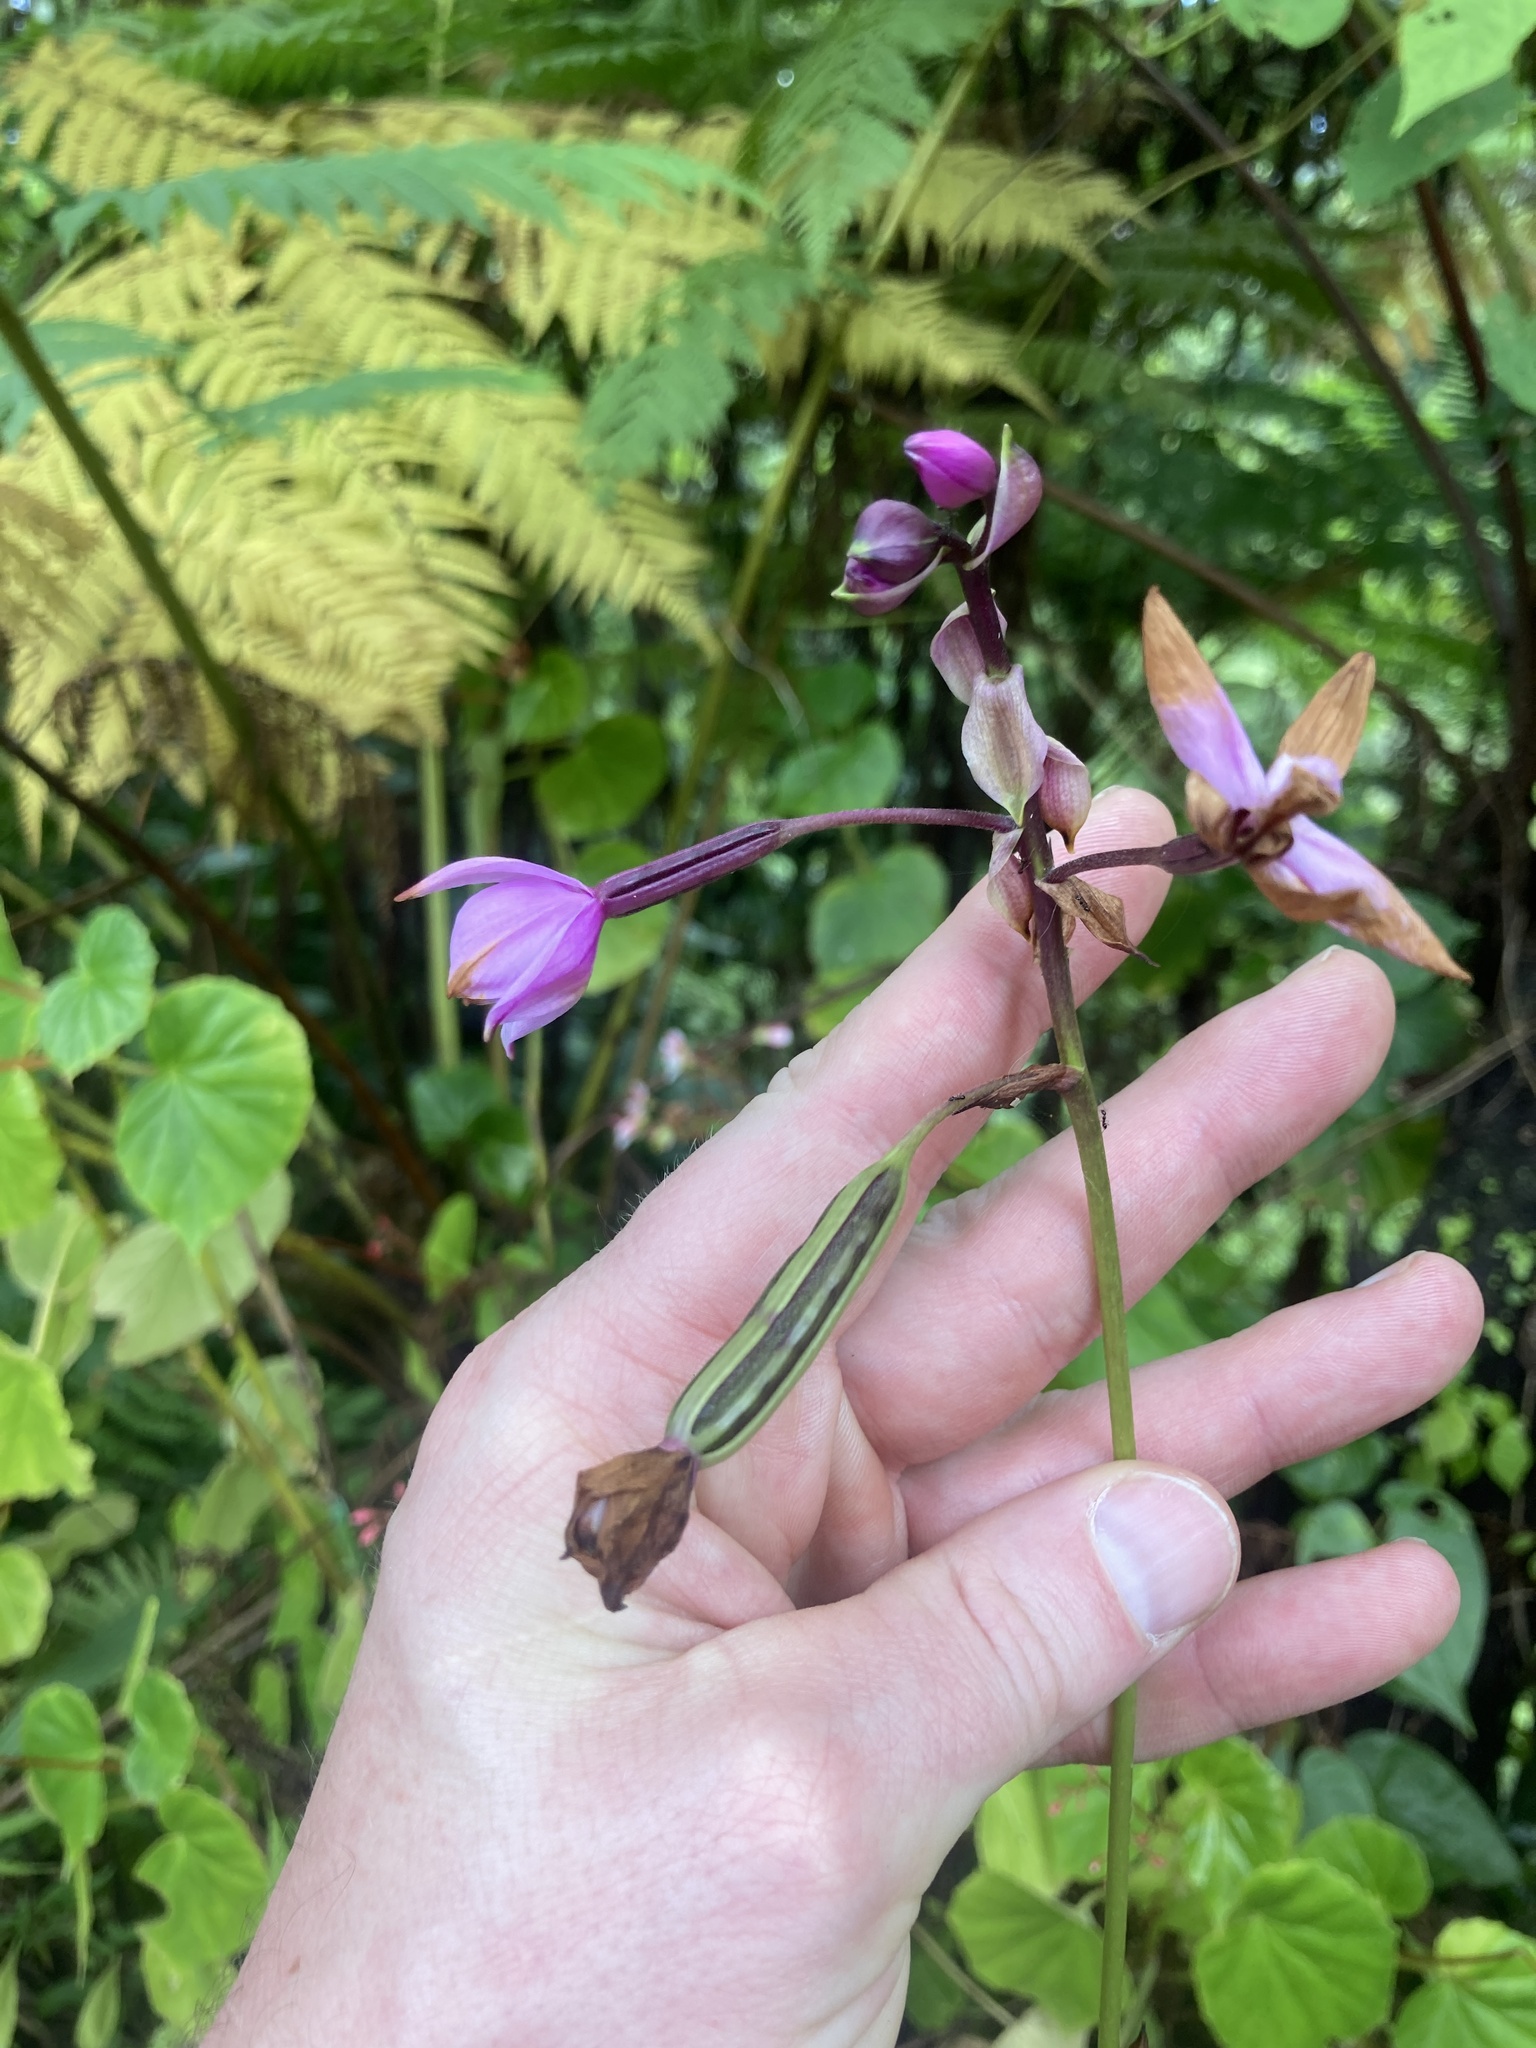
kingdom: Plantae
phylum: Tracheophyta
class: Liliopsida
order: Asparagales
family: Orchidaceae
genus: Spathoglottis
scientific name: Spathoglottis plicata
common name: Philippine ground orchid
